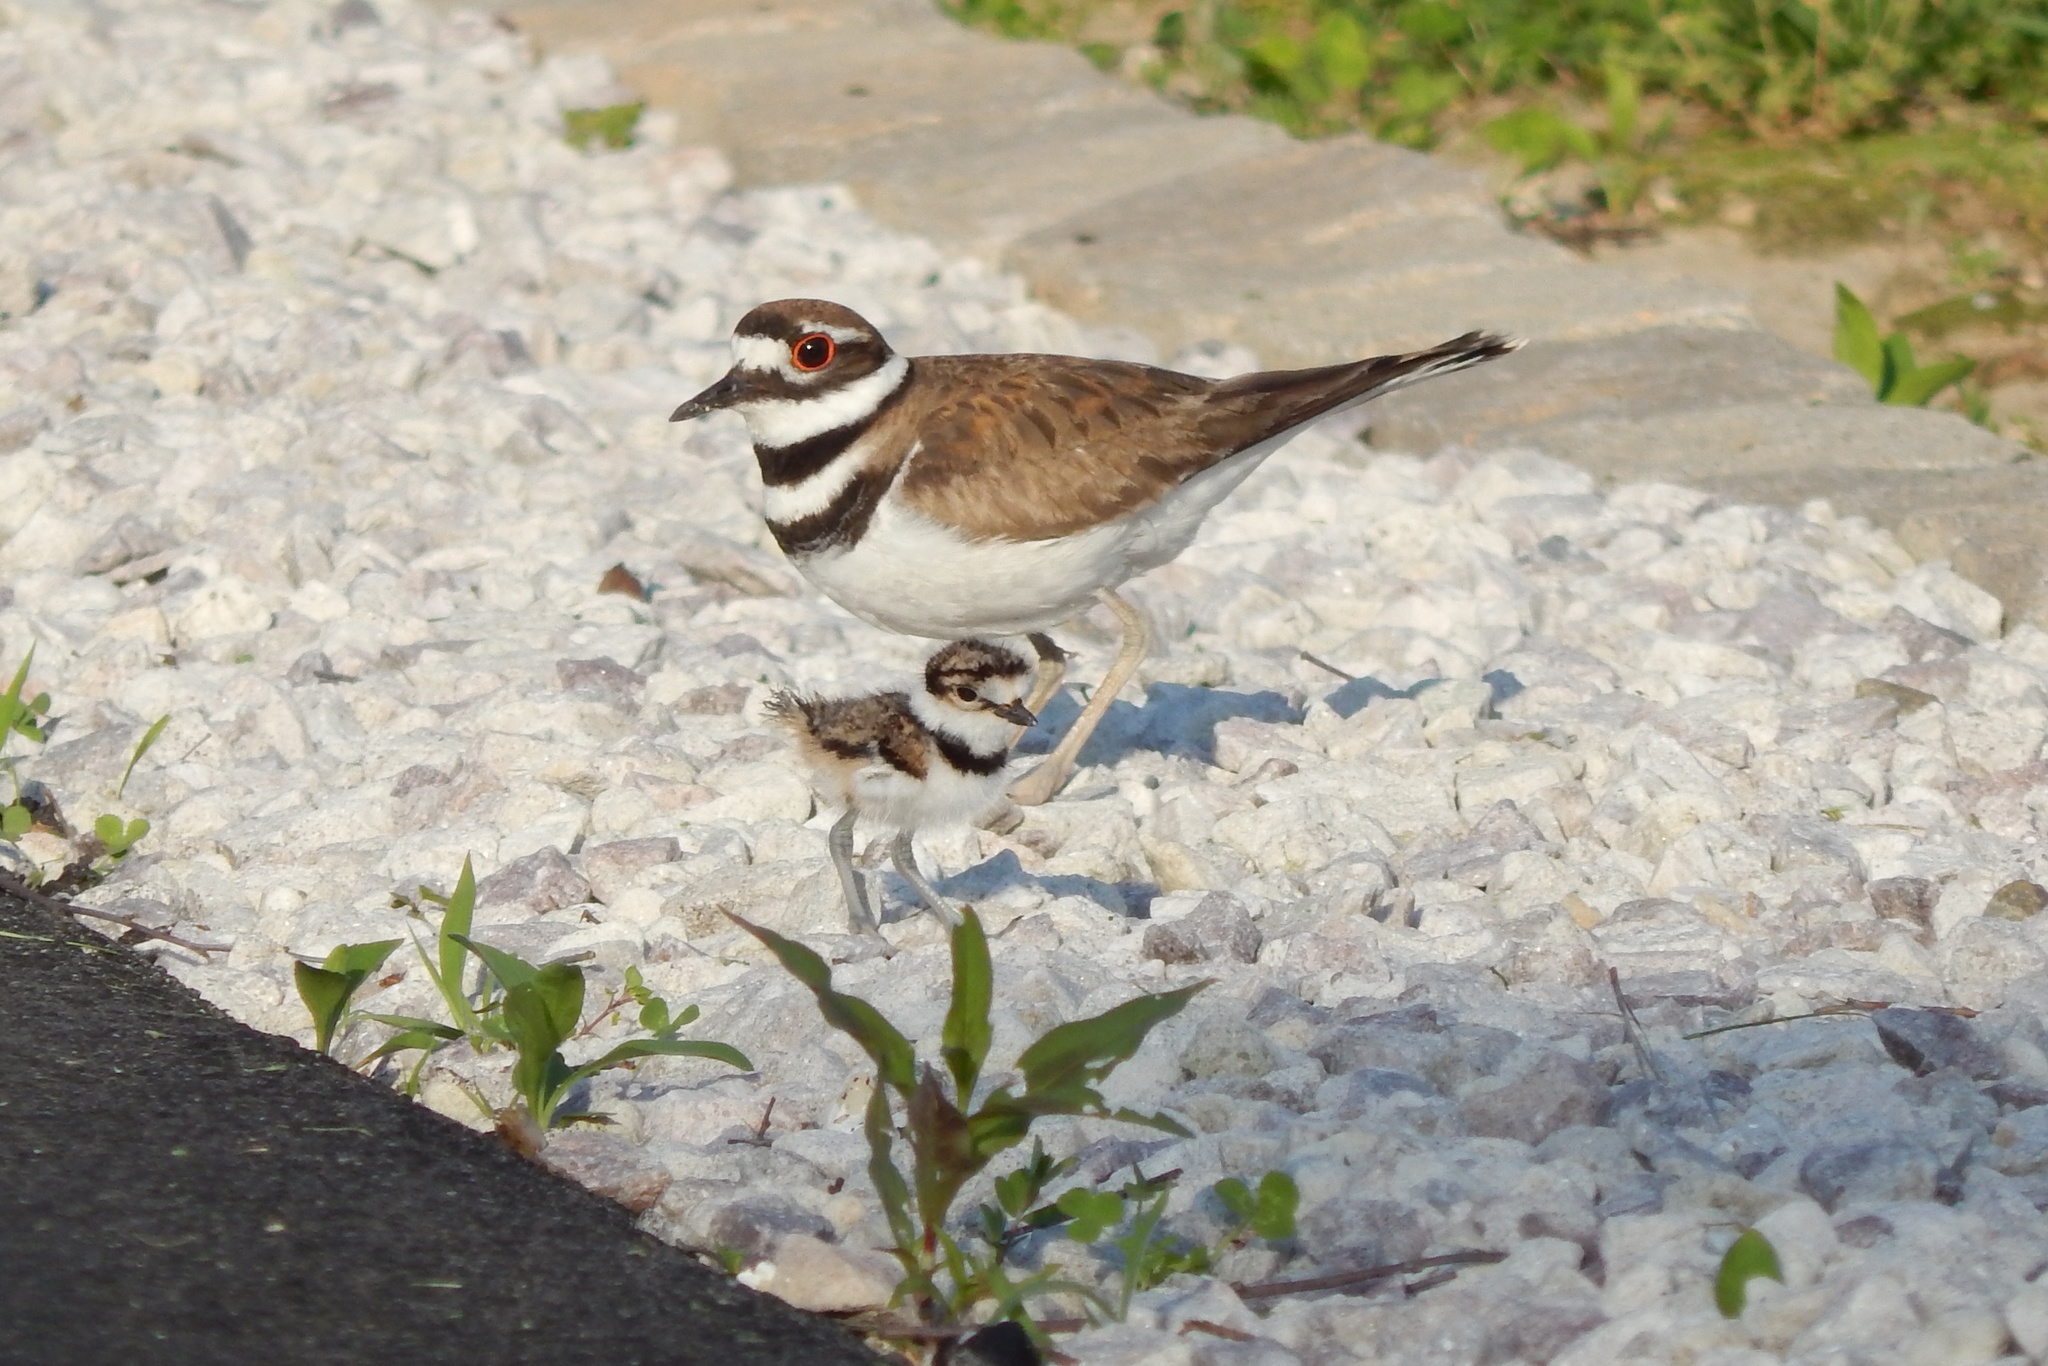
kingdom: Animalia
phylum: Chordata
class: Aves
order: Charadriiformes
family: Charadriidae
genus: Charadrius
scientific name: Charadrius vociferus
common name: Killdeer
